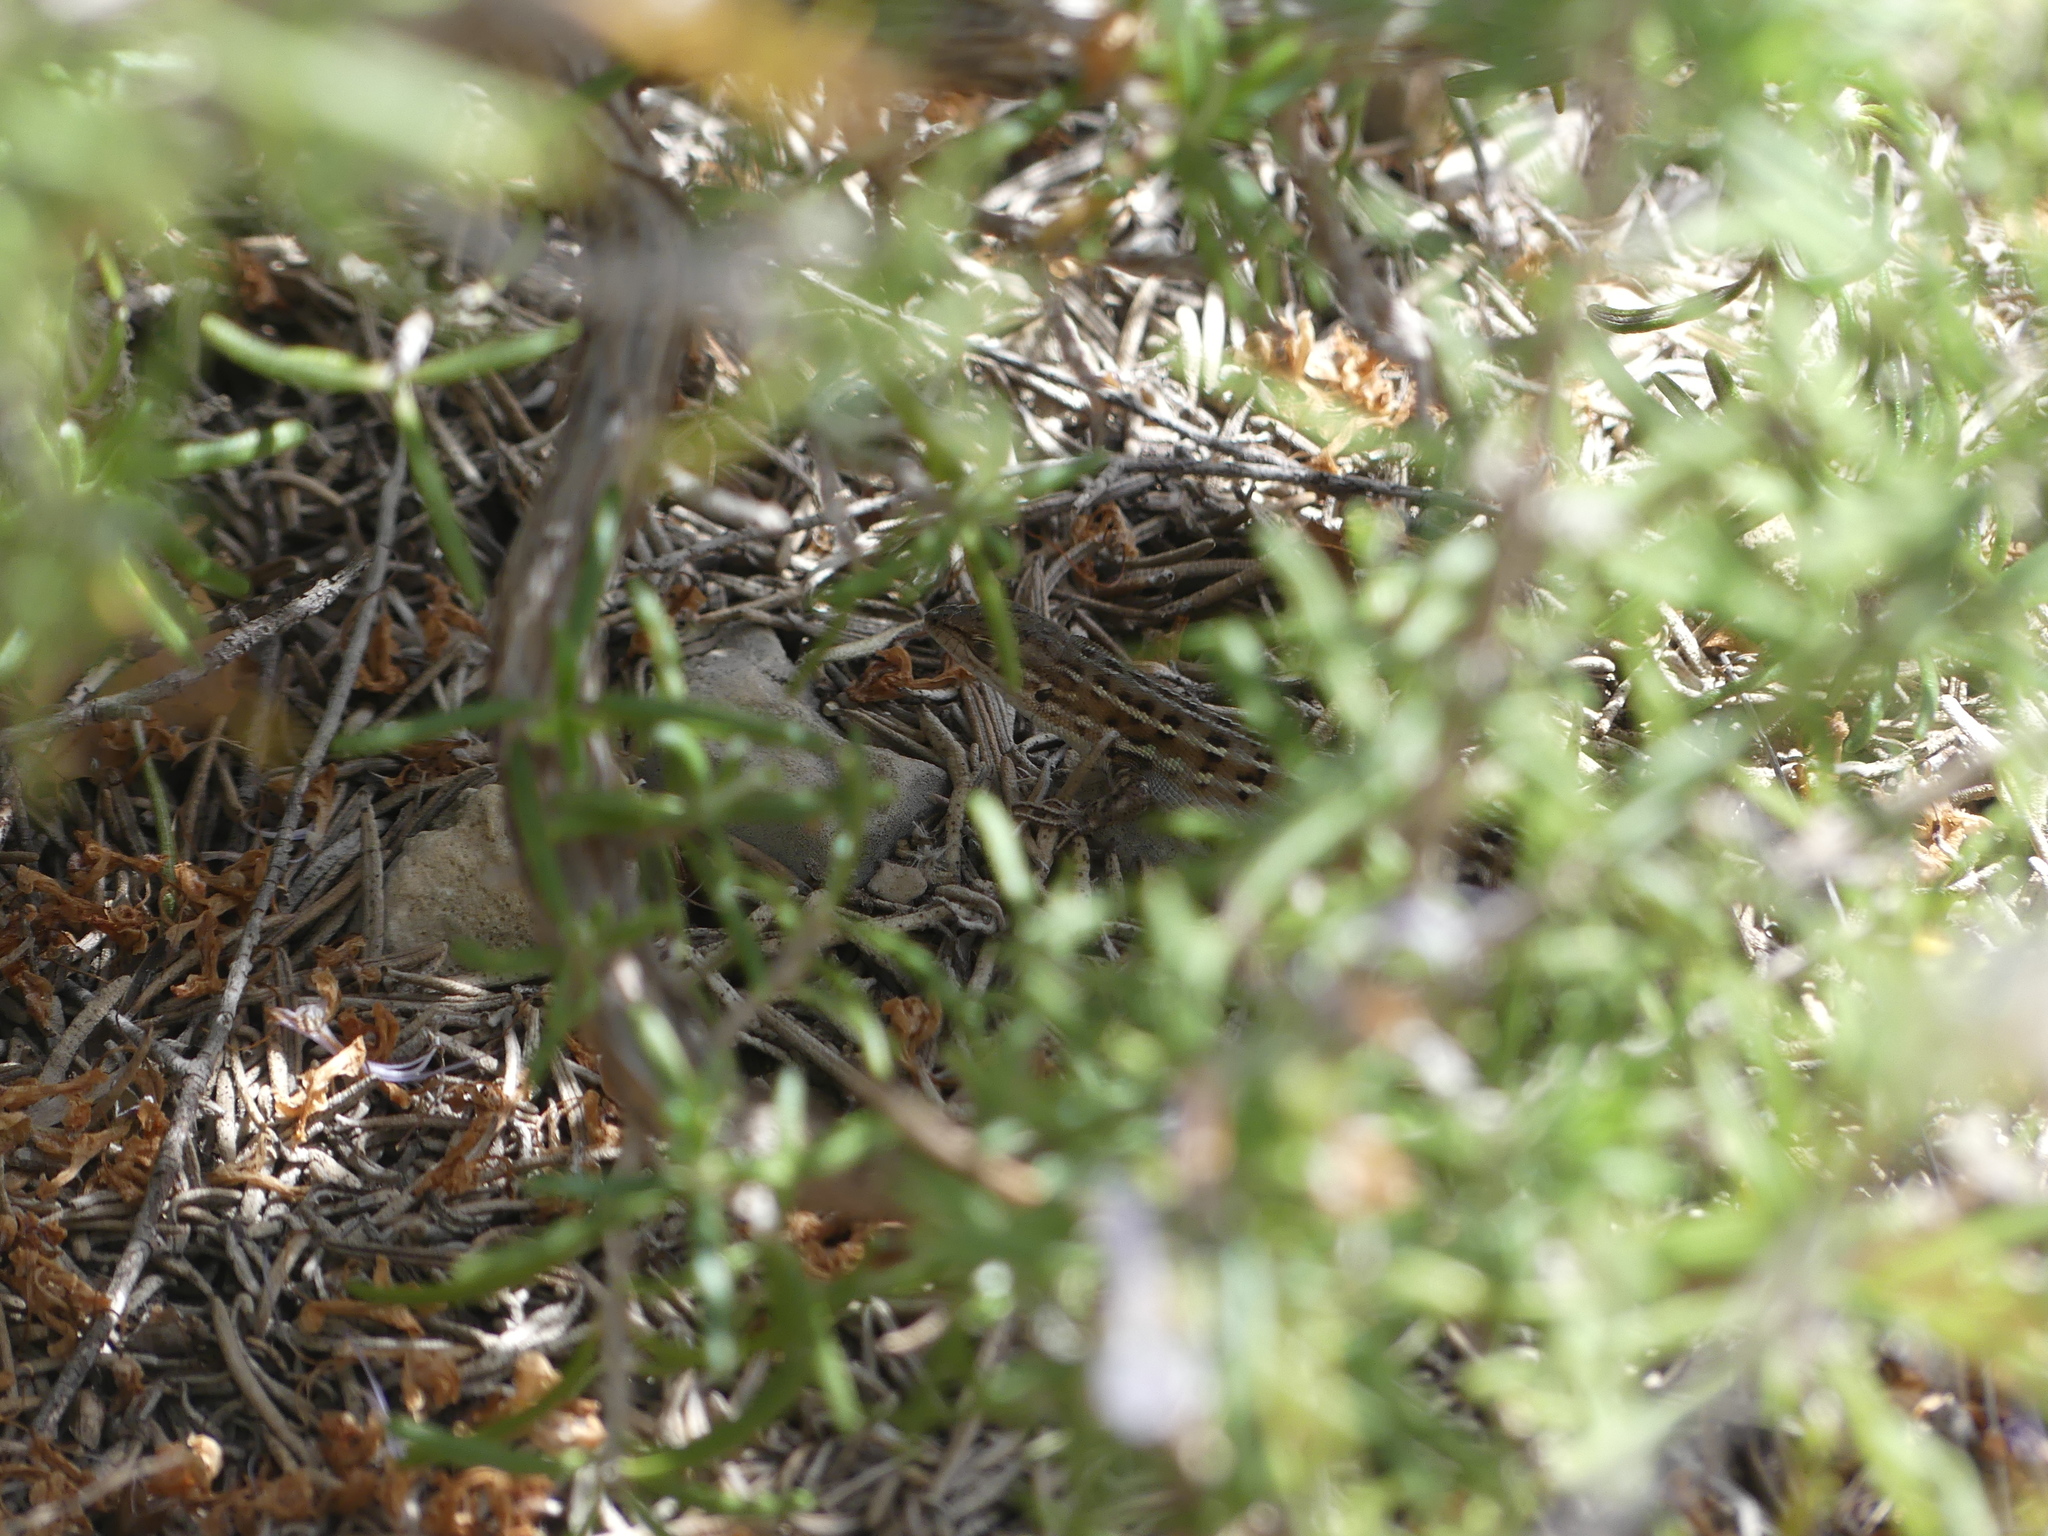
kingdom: Animalia
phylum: Chordata
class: Squamata
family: Lacertidae
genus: Psammodromus
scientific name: Psammodromus edwarsianus
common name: East iberian psammodromus
